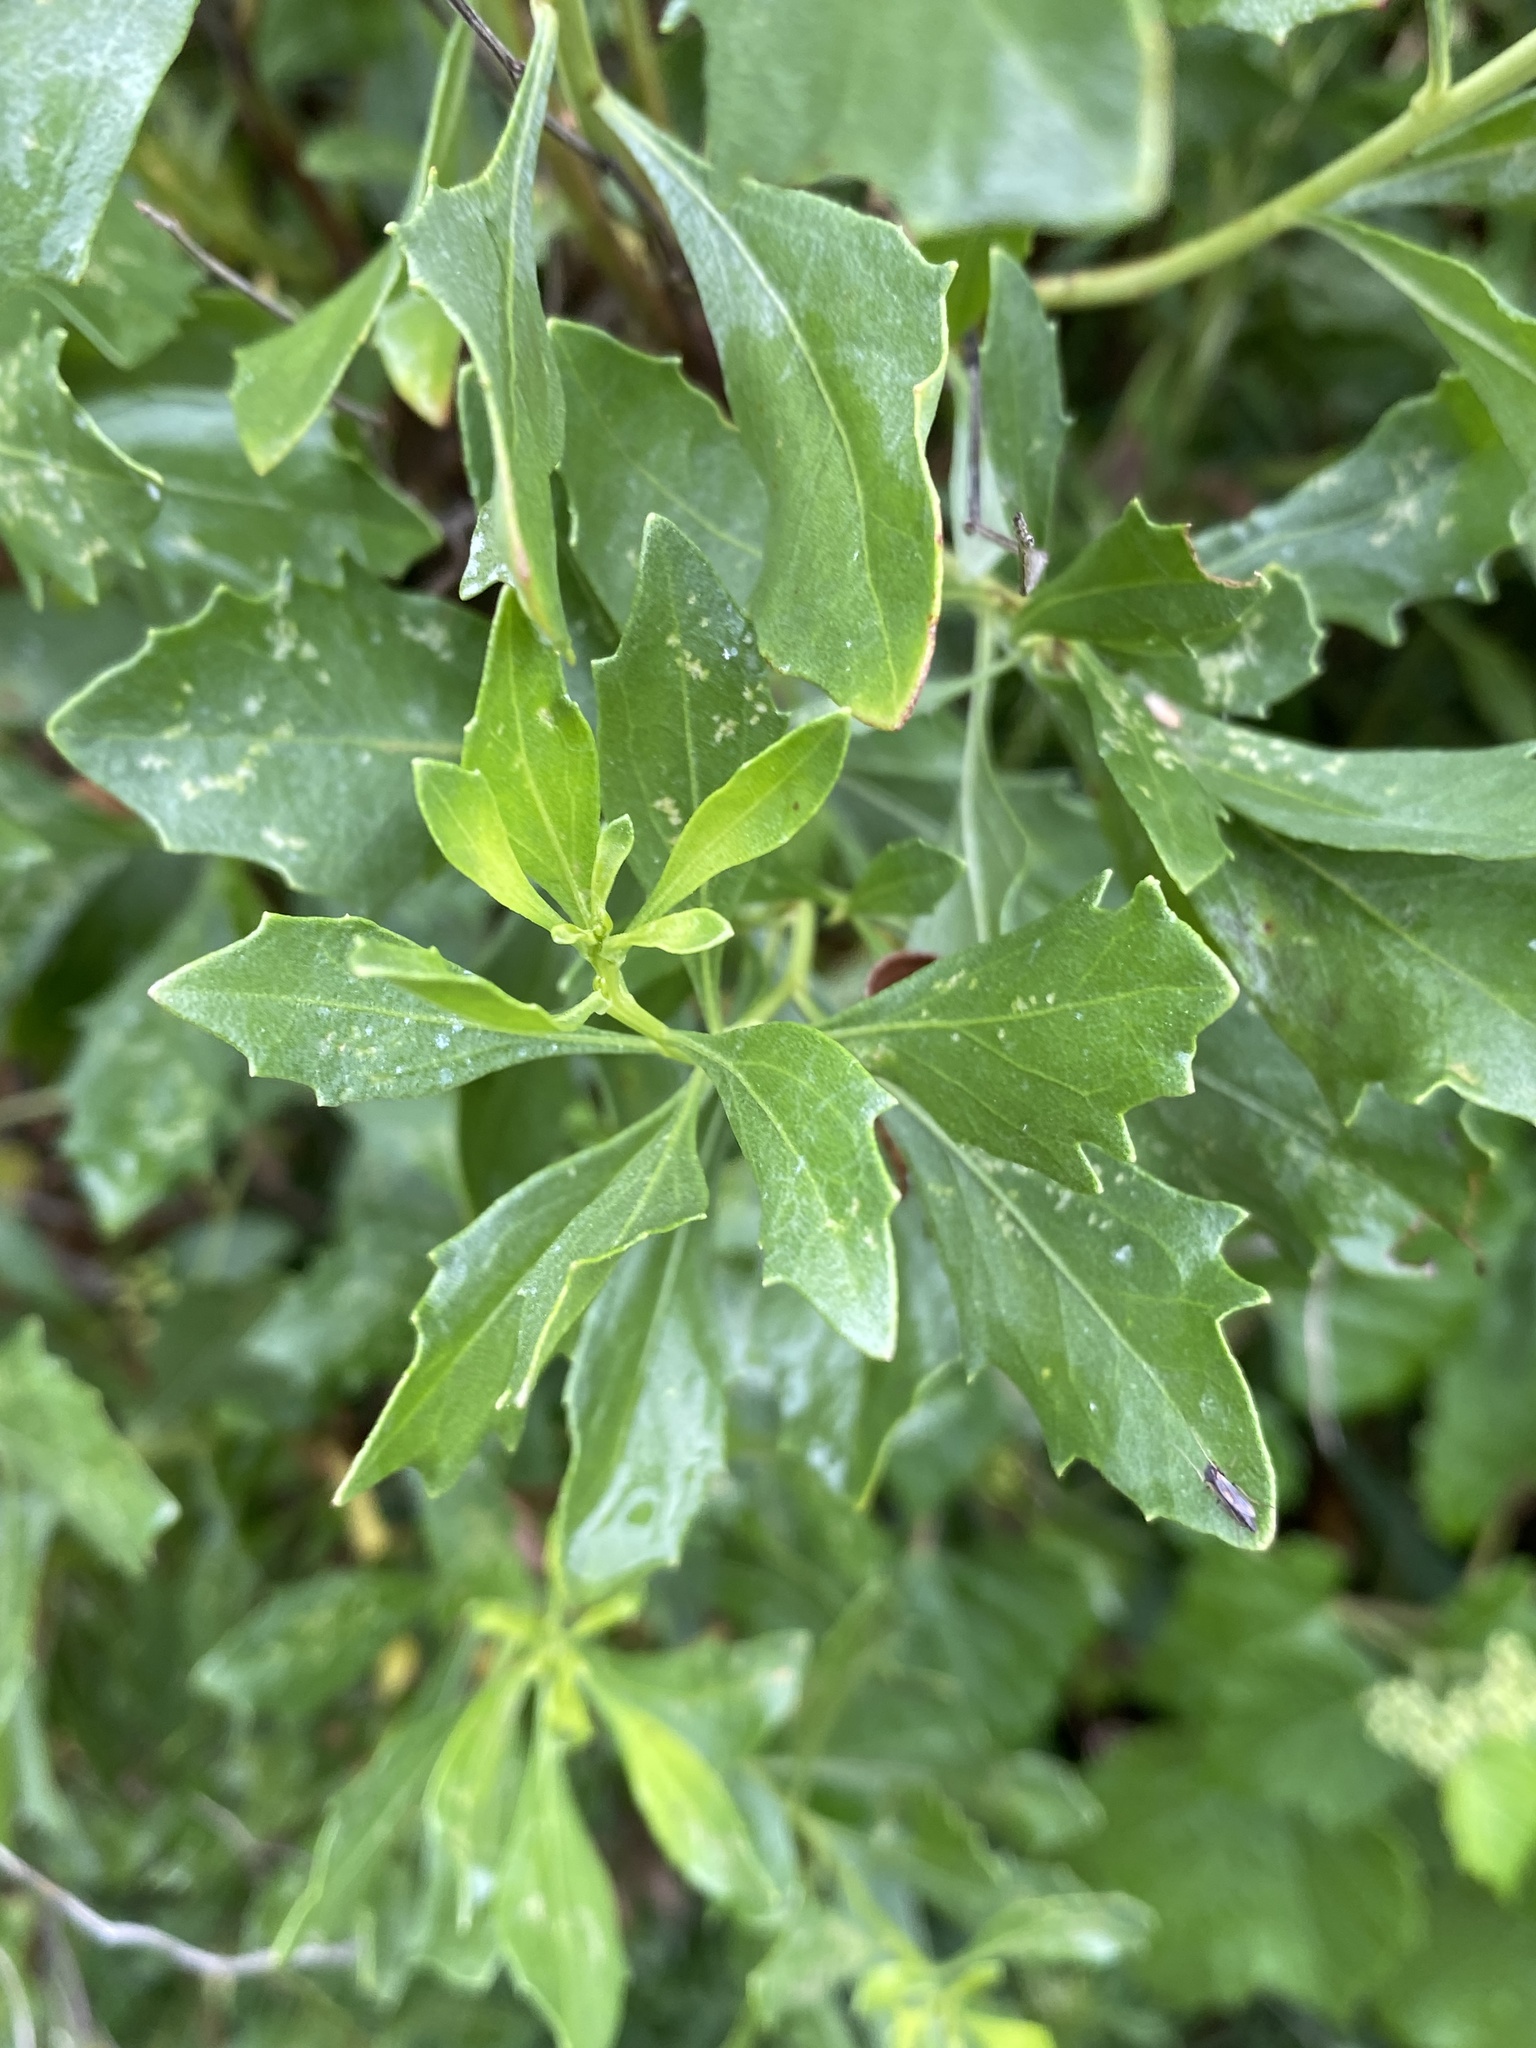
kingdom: Plantae
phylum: Tracheophyta
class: Magnoliopsida
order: Asterales
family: Asteraceae
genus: Baccharis
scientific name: Baccharis halimifolia
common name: Eastern baccharis
